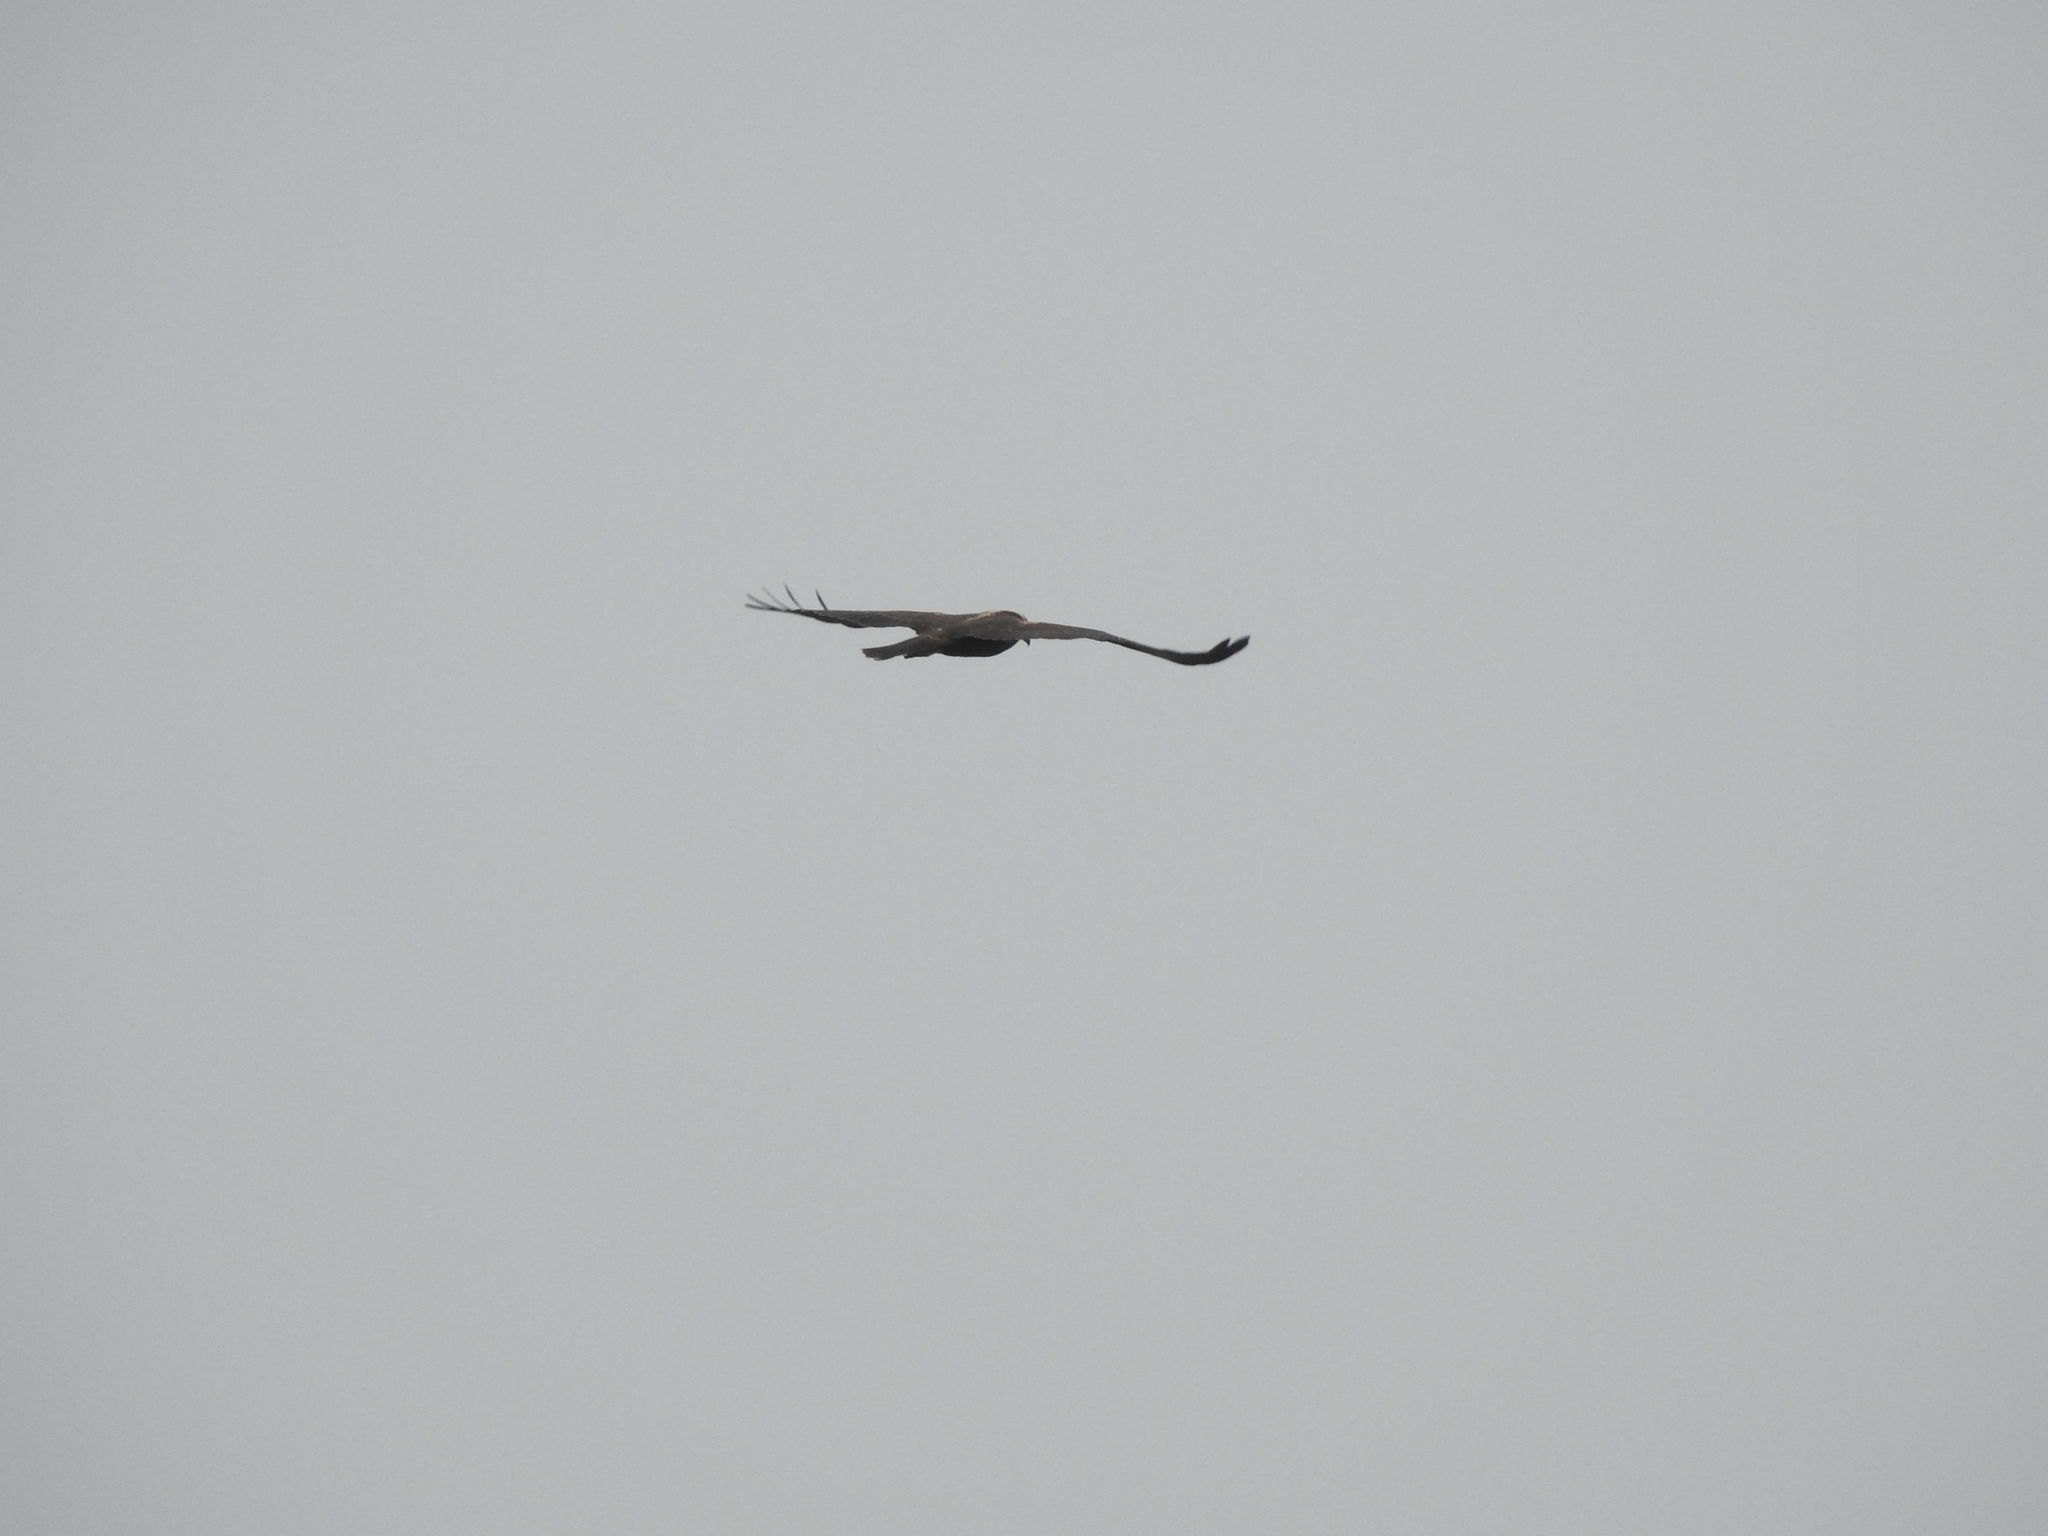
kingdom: Animalia
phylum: Chordata
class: Aves
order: Accipitriformes
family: Accipitridae
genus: Circus
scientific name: Circus aeruginosus
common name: Western marsh harrier
